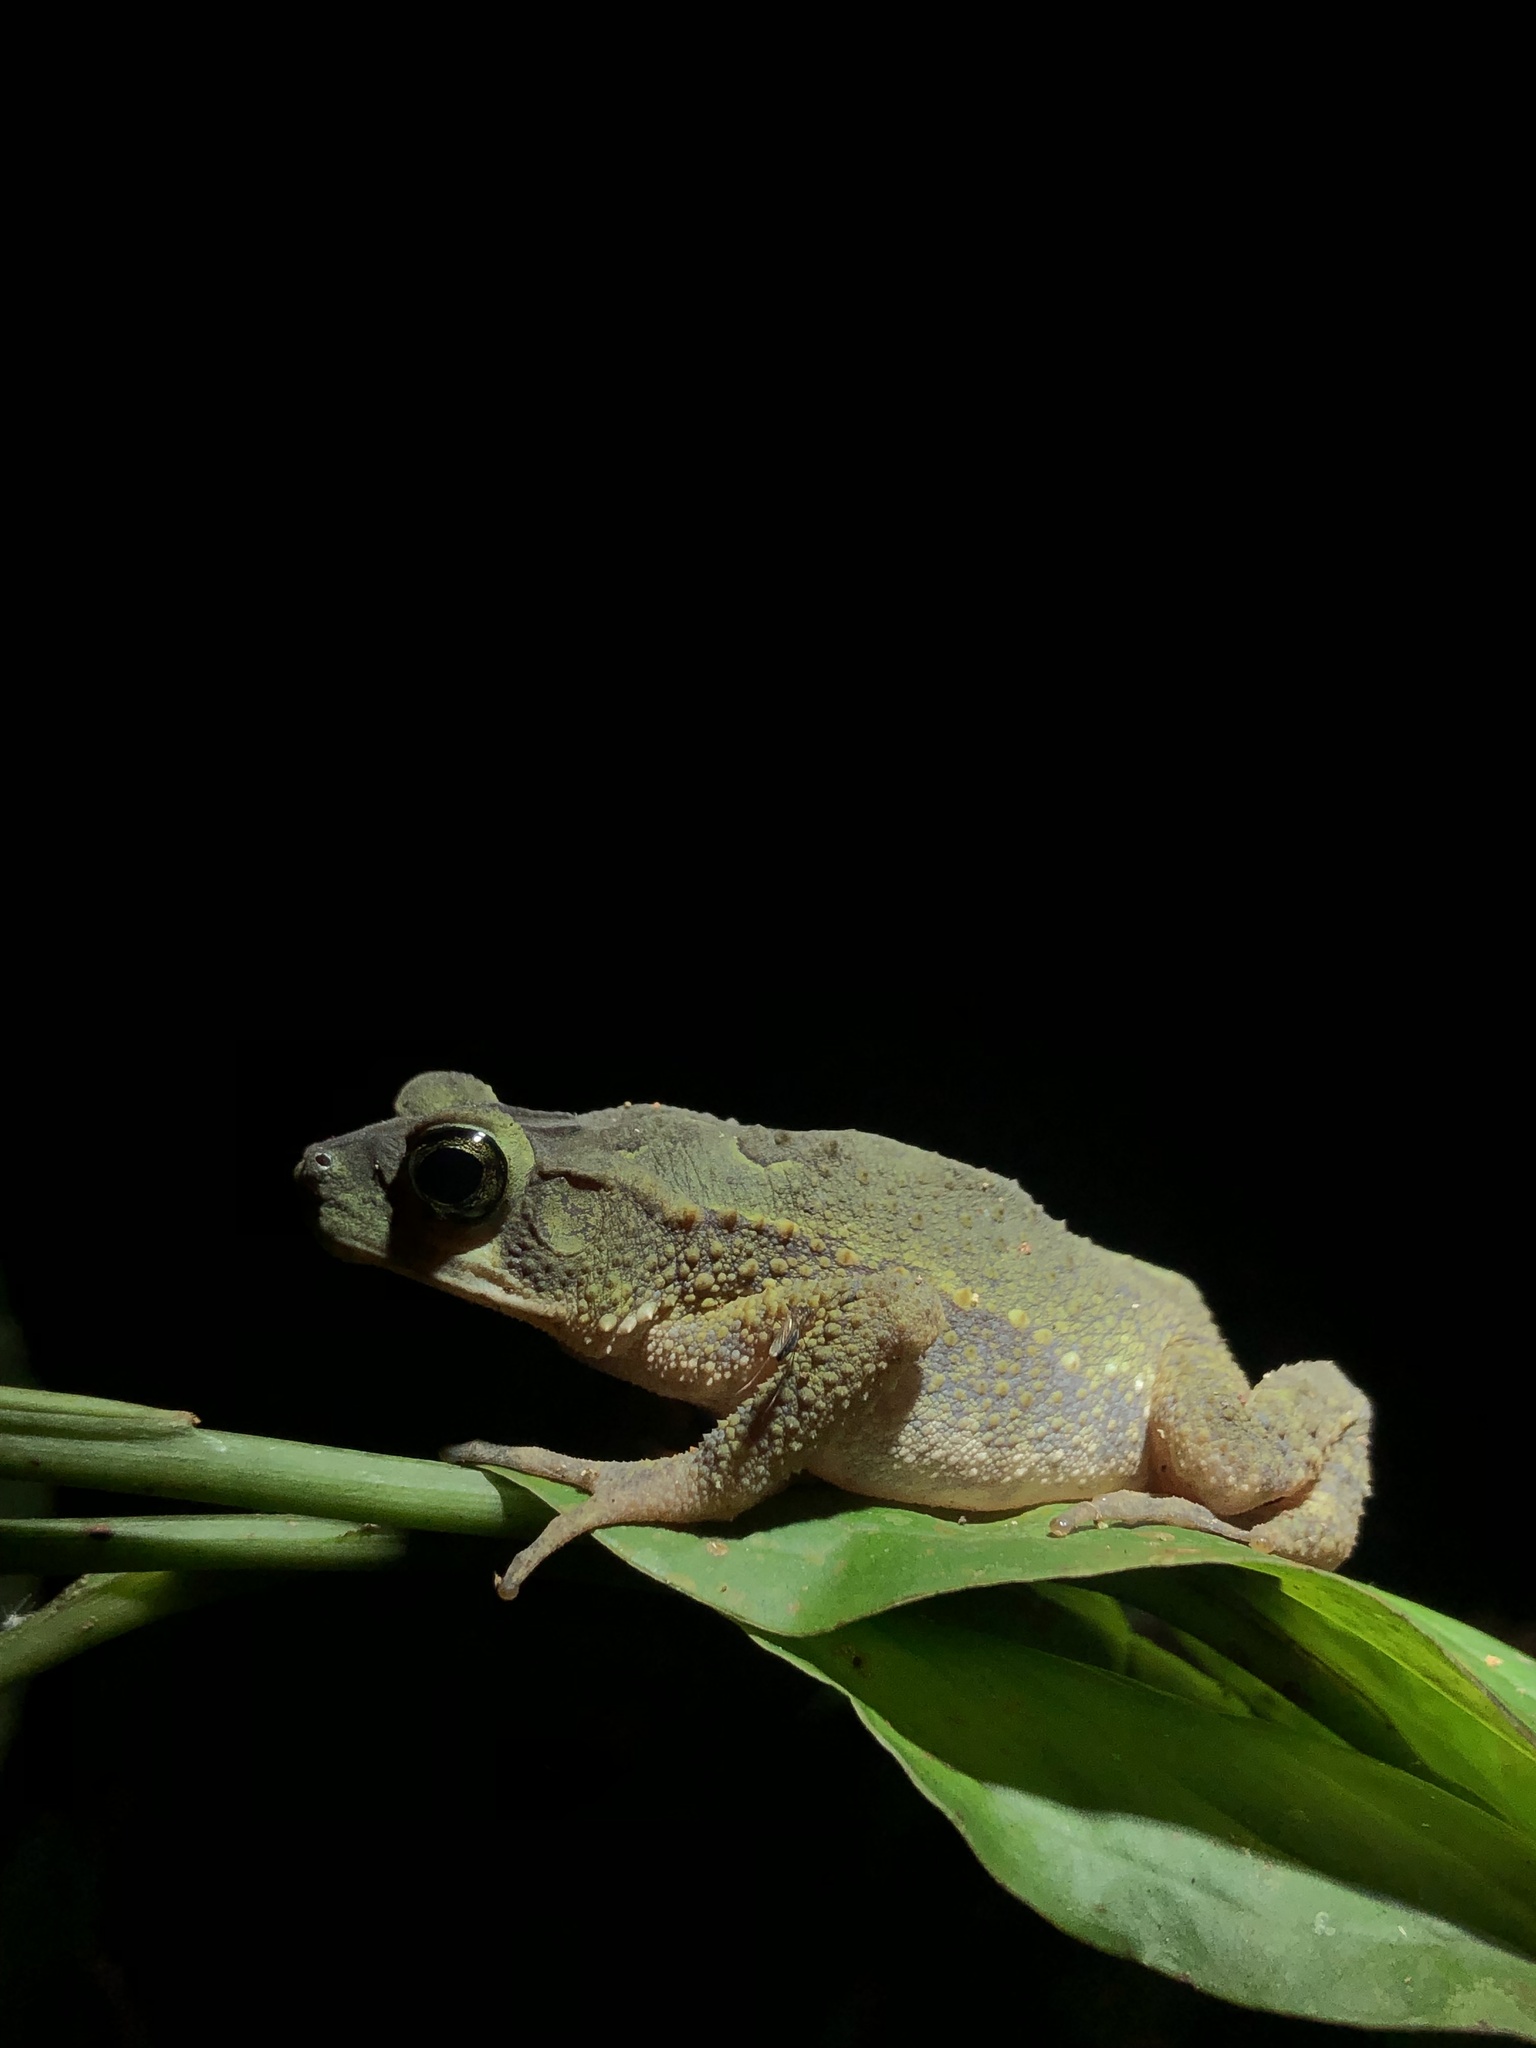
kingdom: Animalia
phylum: Chordata
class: Amphibia
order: Anura
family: Bufonidae
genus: Incilius
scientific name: Incilius coniferus
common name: Evergreen toad
